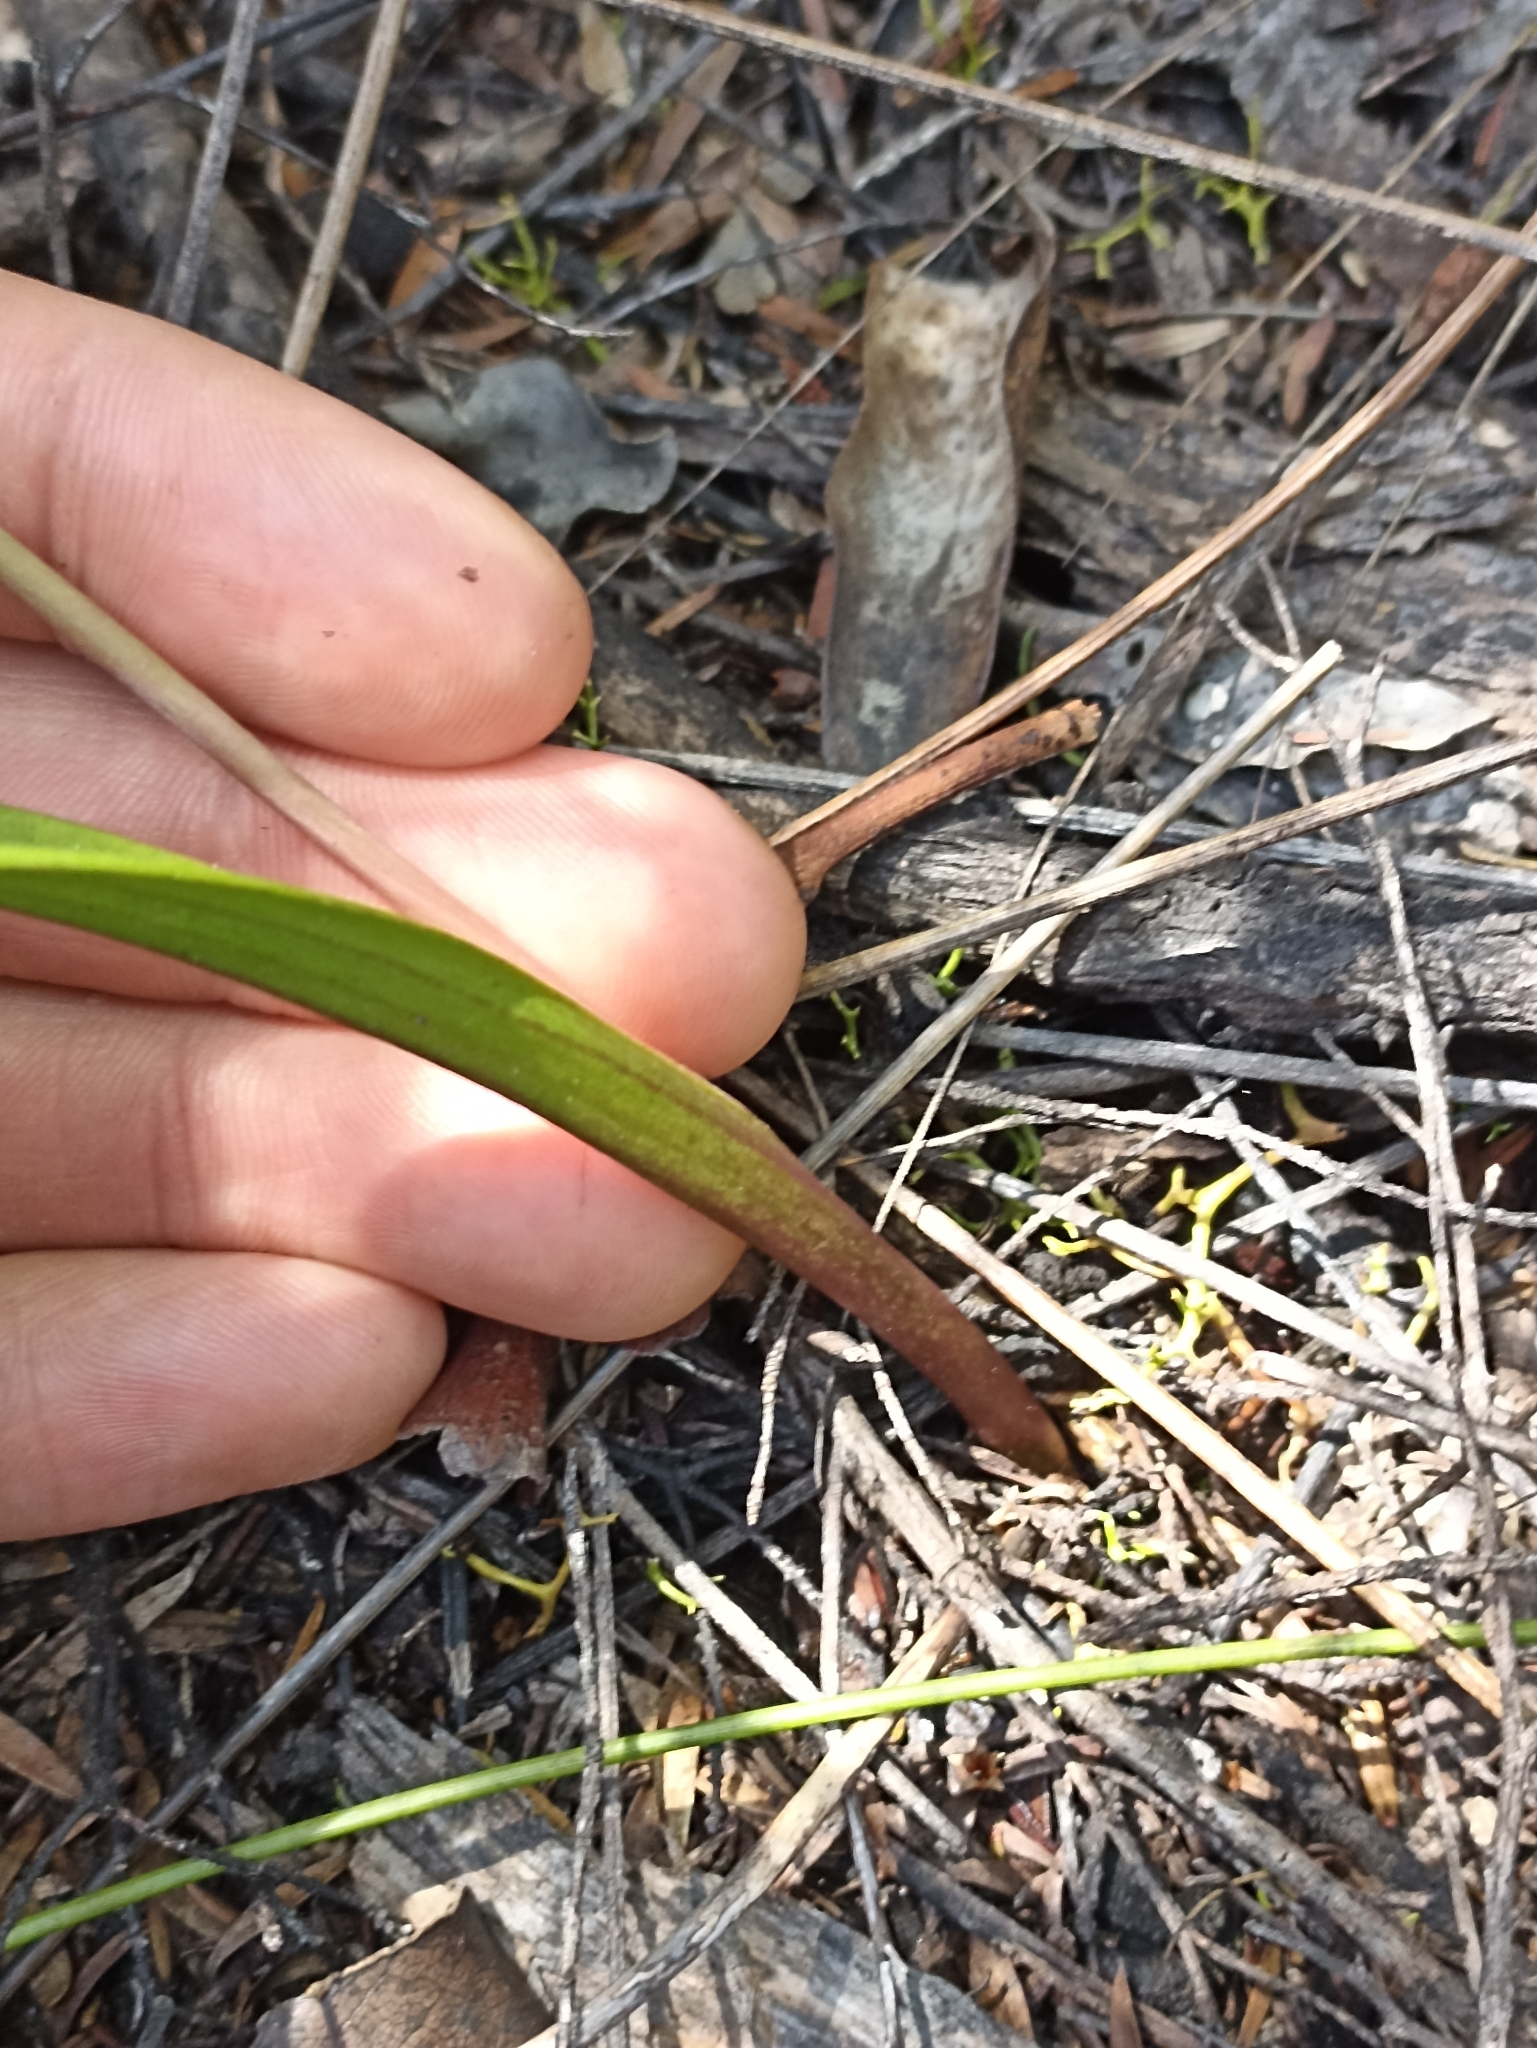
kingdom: Plantae
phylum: Tracheophyta
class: Liliopsida
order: Asparagales
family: Orchidaceae
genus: Thelymitra
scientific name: Thelymitra pauciflora
